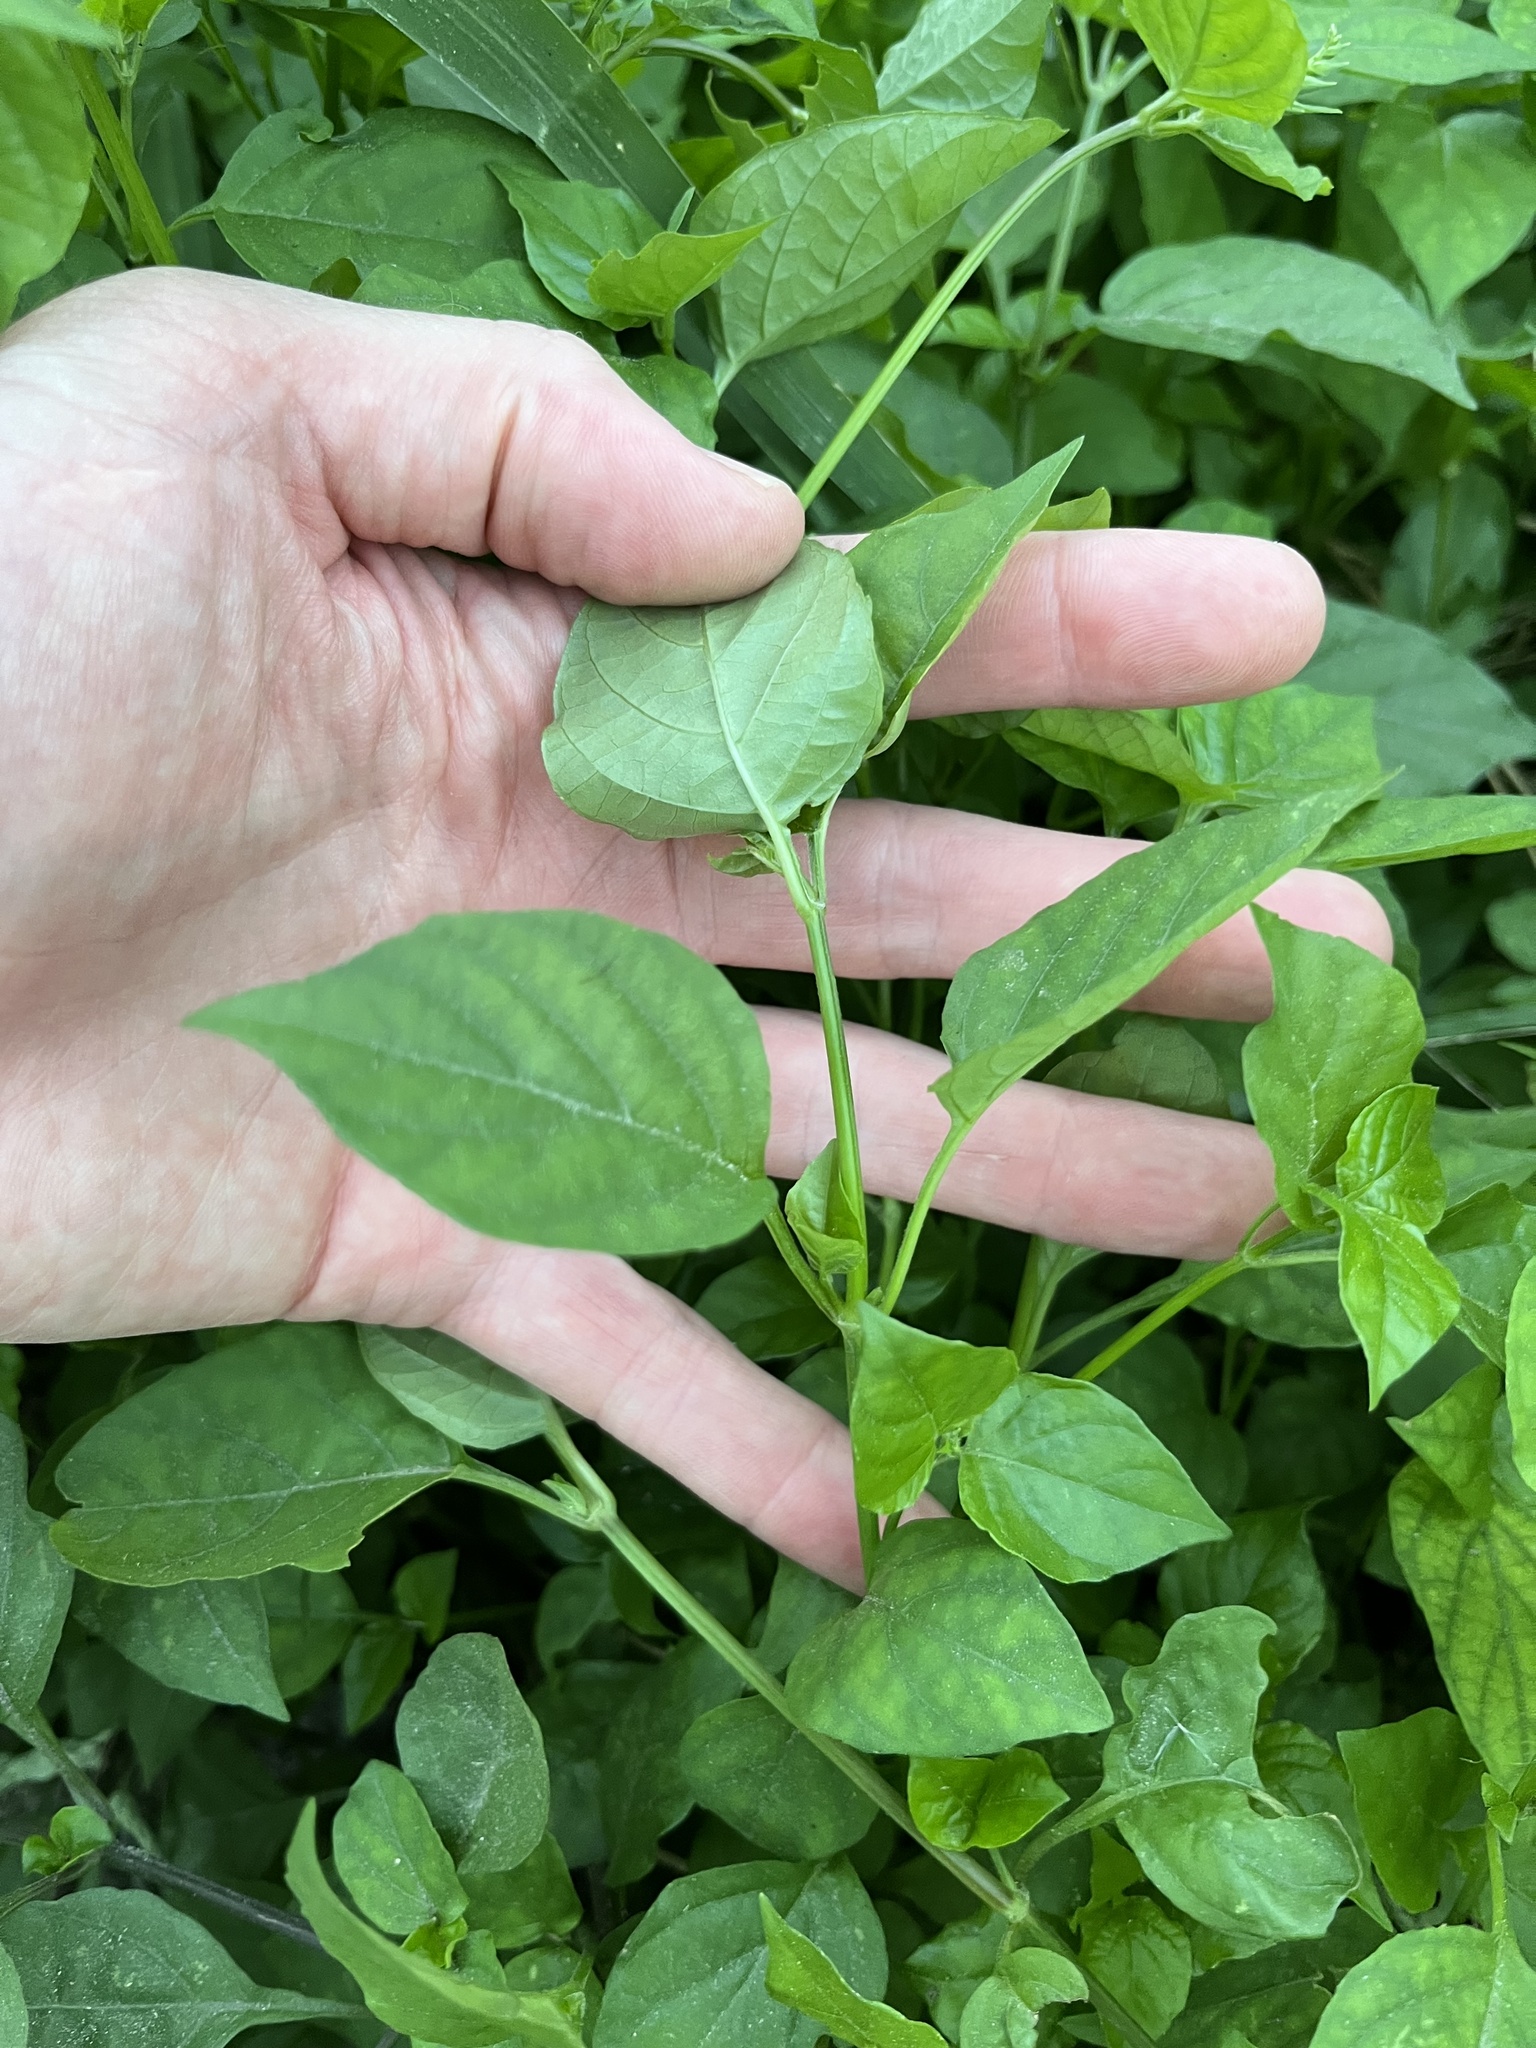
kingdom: Plantae
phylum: Tracheophyta
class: Magnoliopsida
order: Lamiales
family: Acanthaceae
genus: Asystasia
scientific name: Asystasia gangetica
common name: Chinese violet
